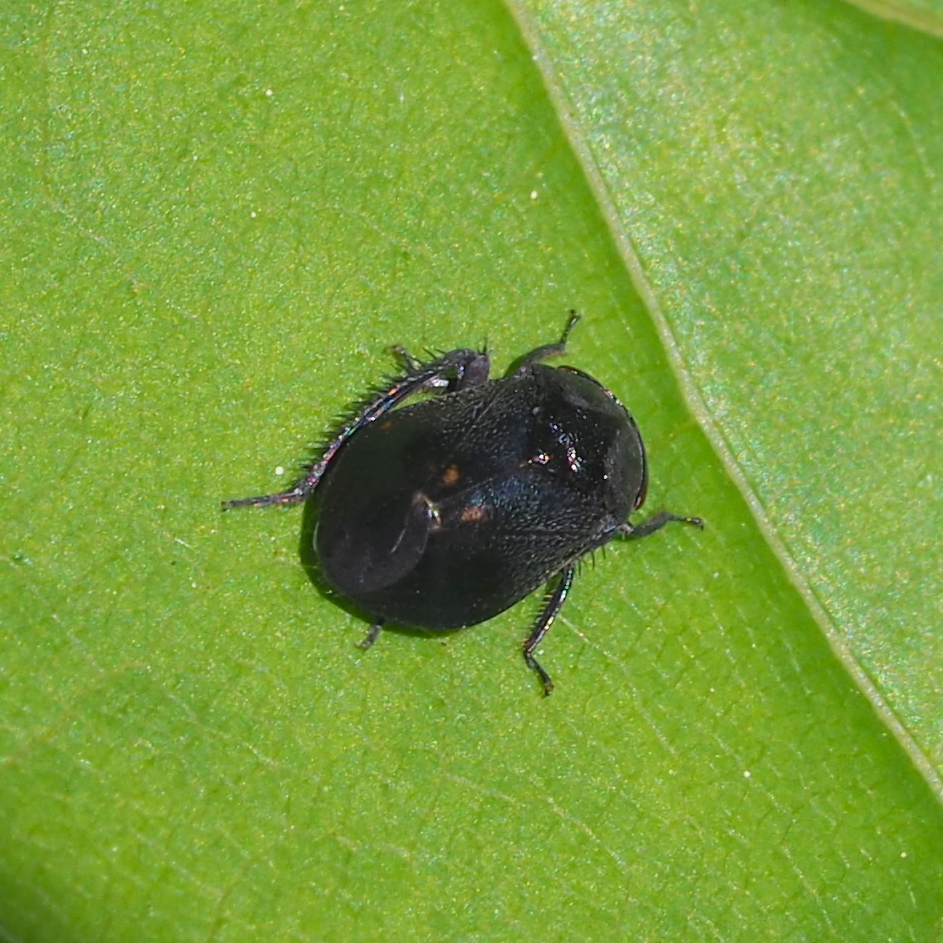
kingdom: Animalia
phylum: Arthropoda
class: Insecta
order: Hemiptera
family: Cicadellidae
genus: Penthimia
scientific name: Penthimia nigra
